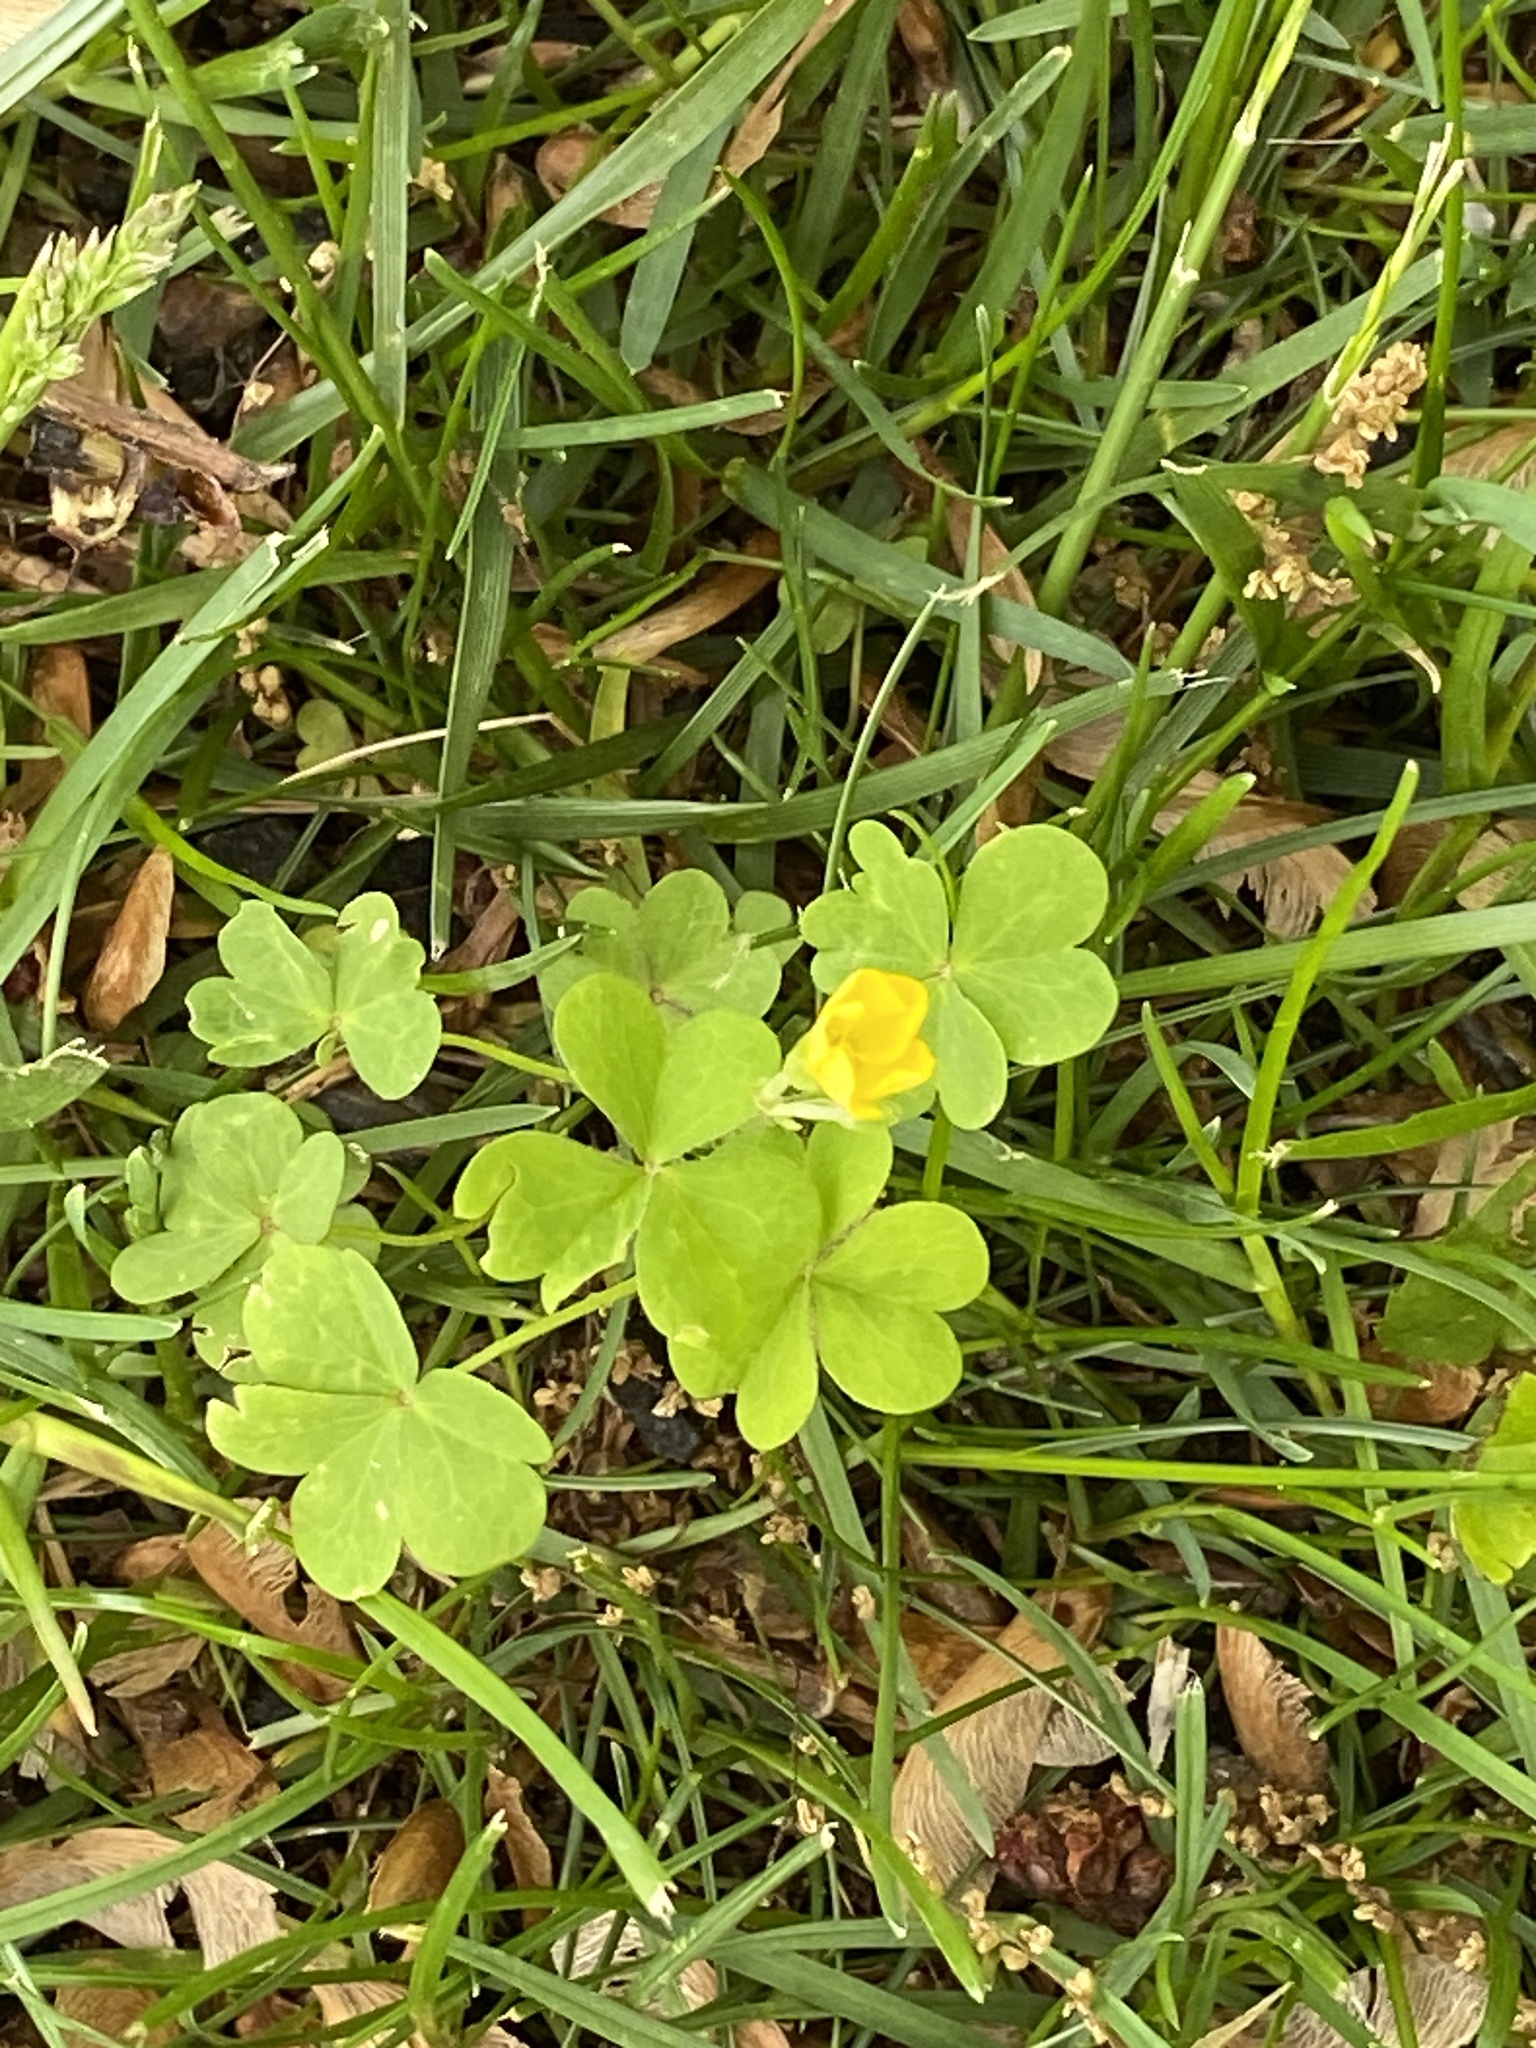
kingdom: Plantae
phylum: Tracheophyta
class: Magnoliopsida
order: Oxalidales
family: Oxalidaceae
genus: Oxalis
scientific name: Oxalis dillenii
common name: Sussex yellow-sorrel
